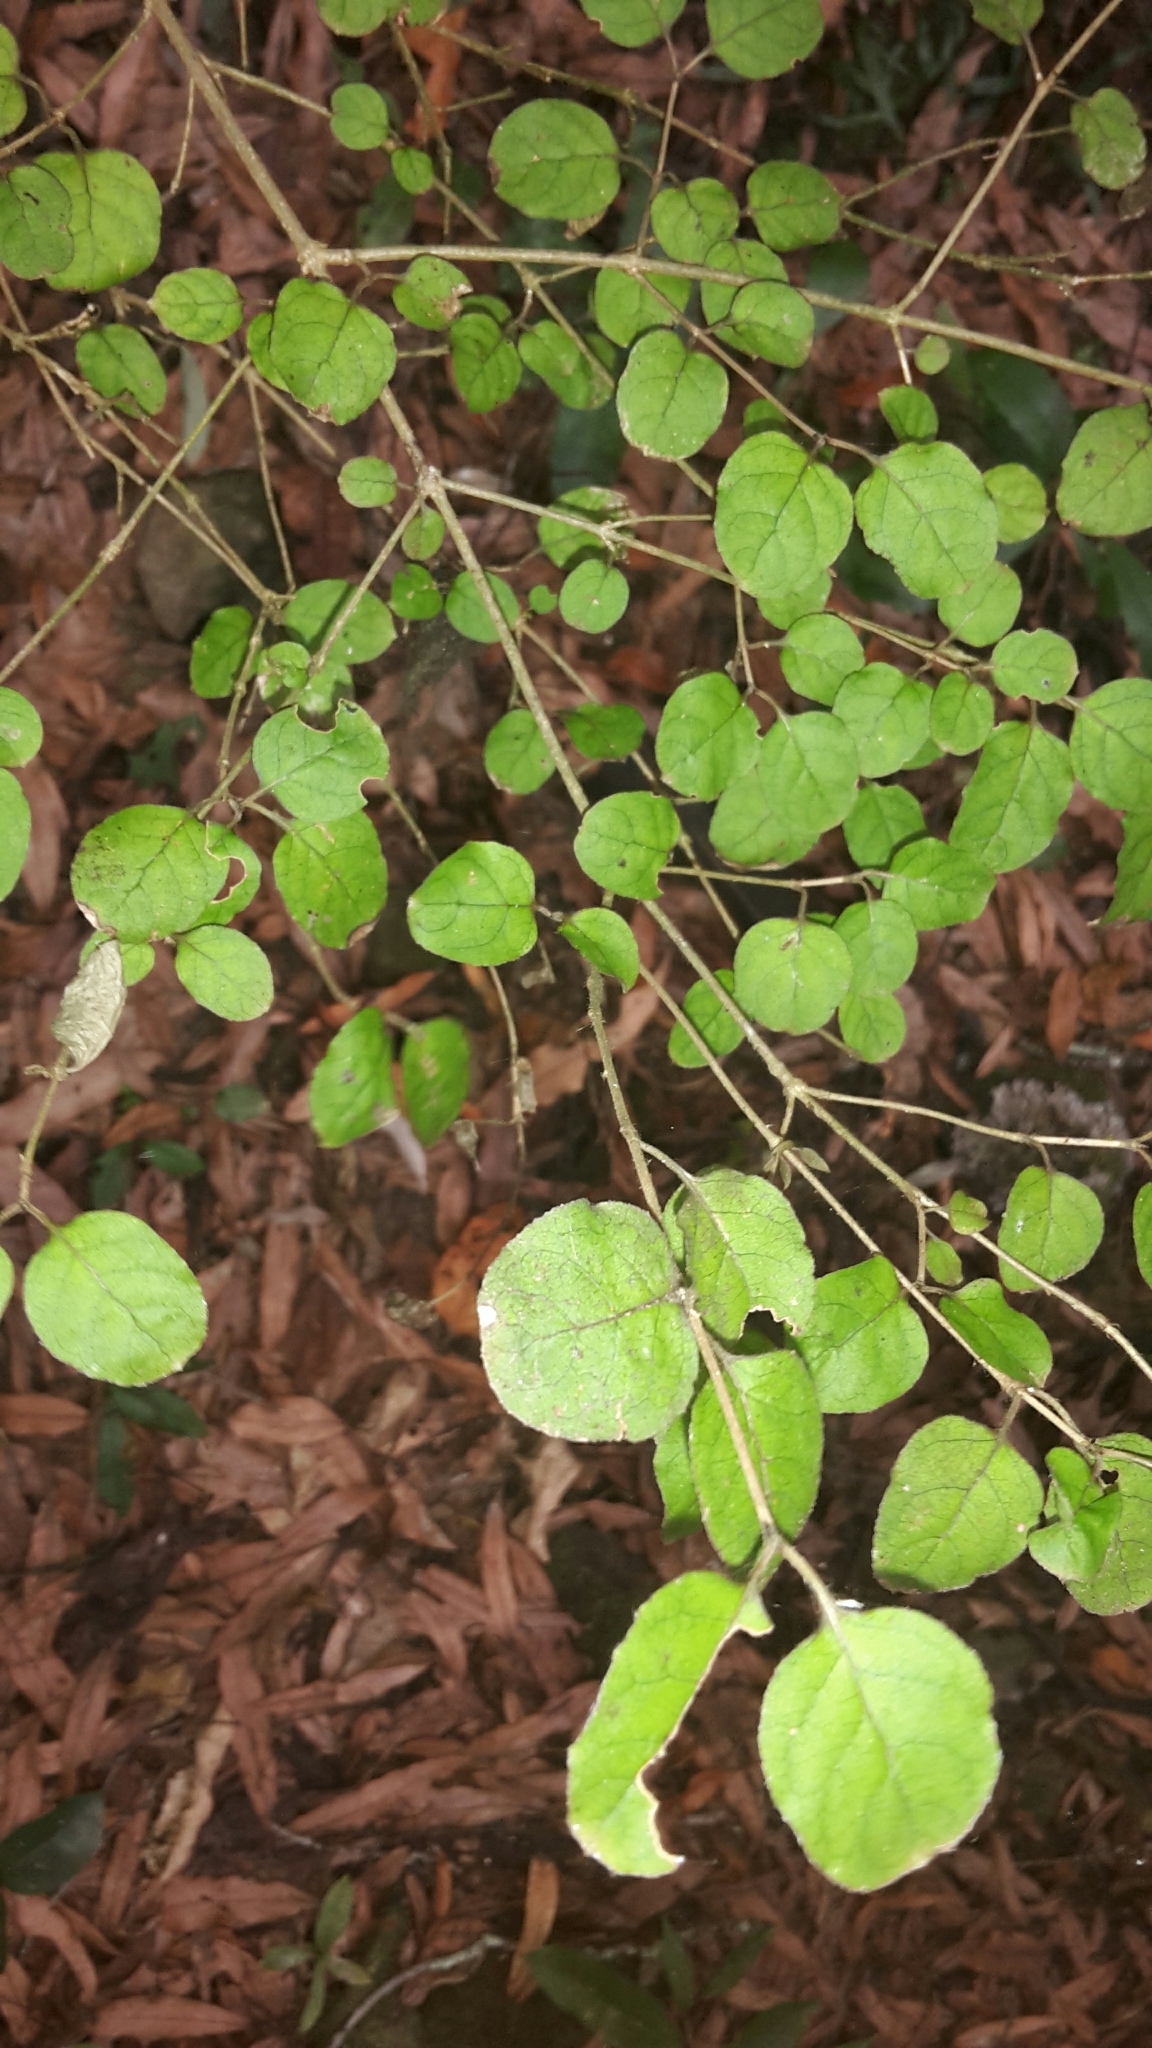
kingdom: Plantae
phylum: Tracheophyta
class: Magnoliopsida
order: Gentianales
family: Rubiaceae
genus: Coprosma
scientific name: Coprosma rotundifolia
